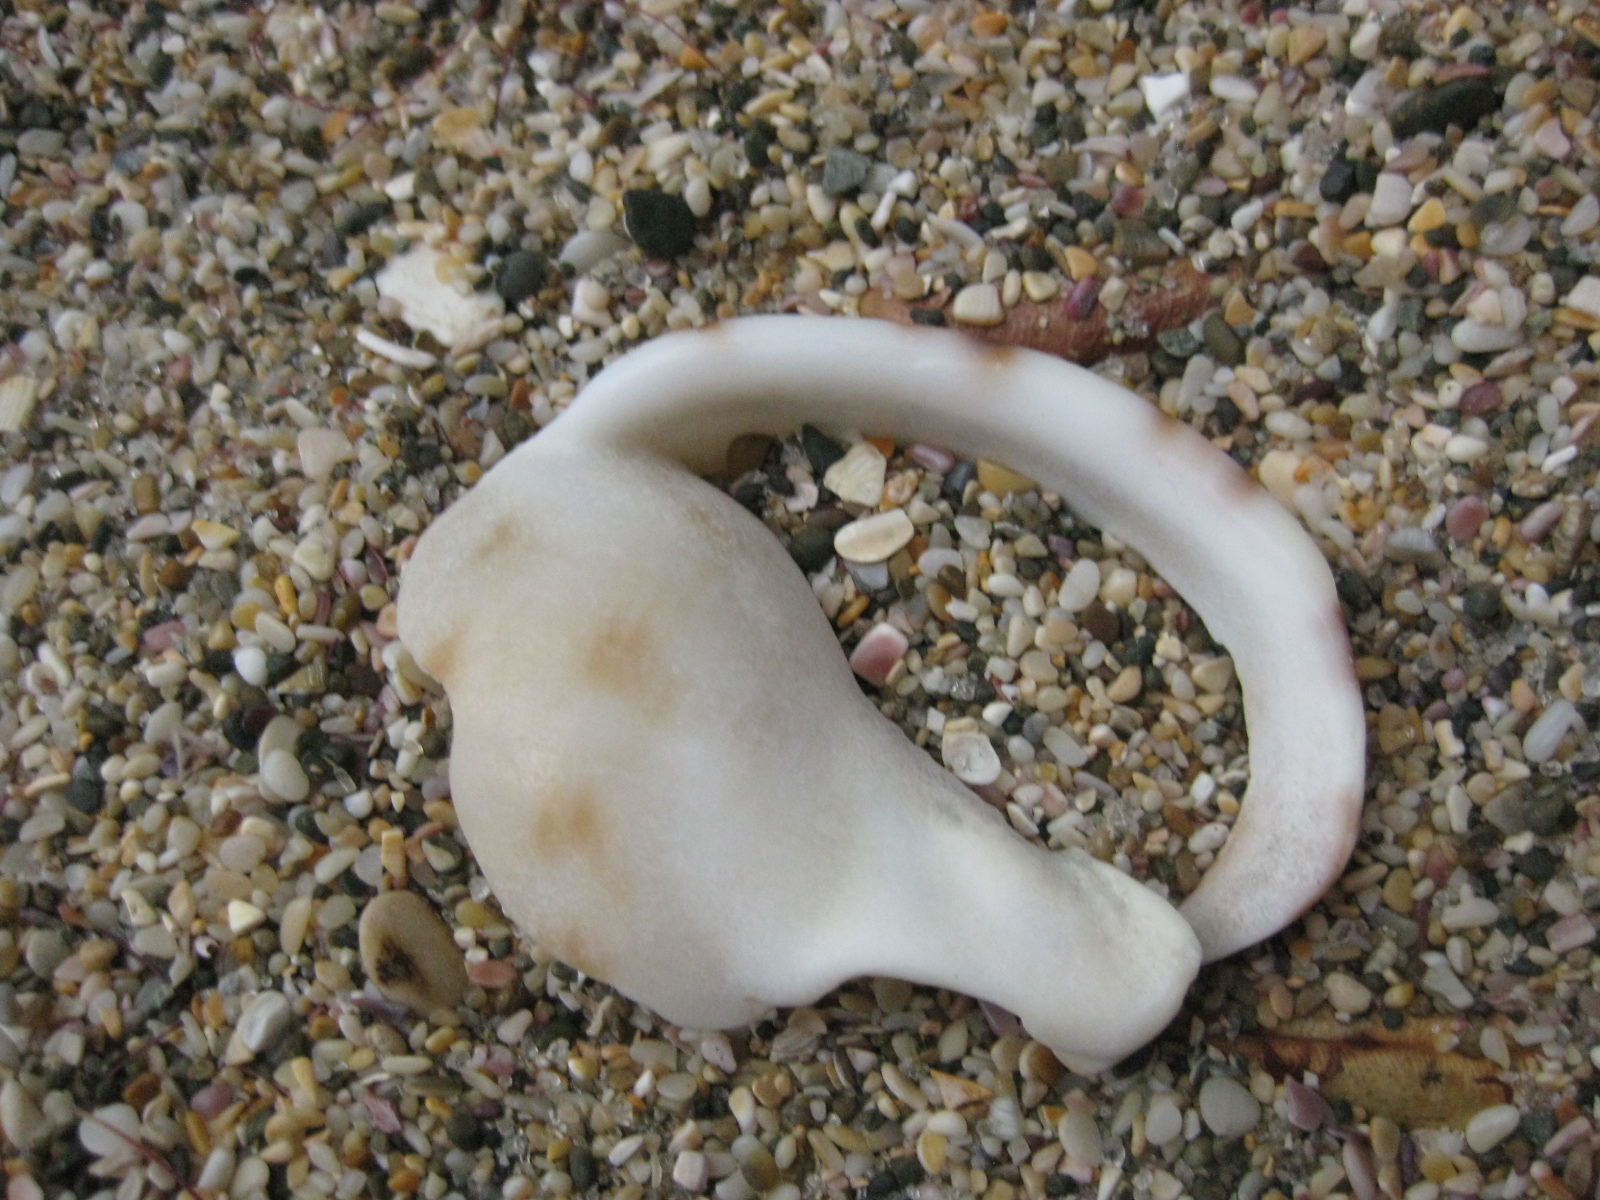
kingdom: Animalia
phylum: Mollusca
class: Gastropoda
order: Littorinimorpha
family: Cassidae
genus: Semicassis
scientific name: Semicassis pyrum
